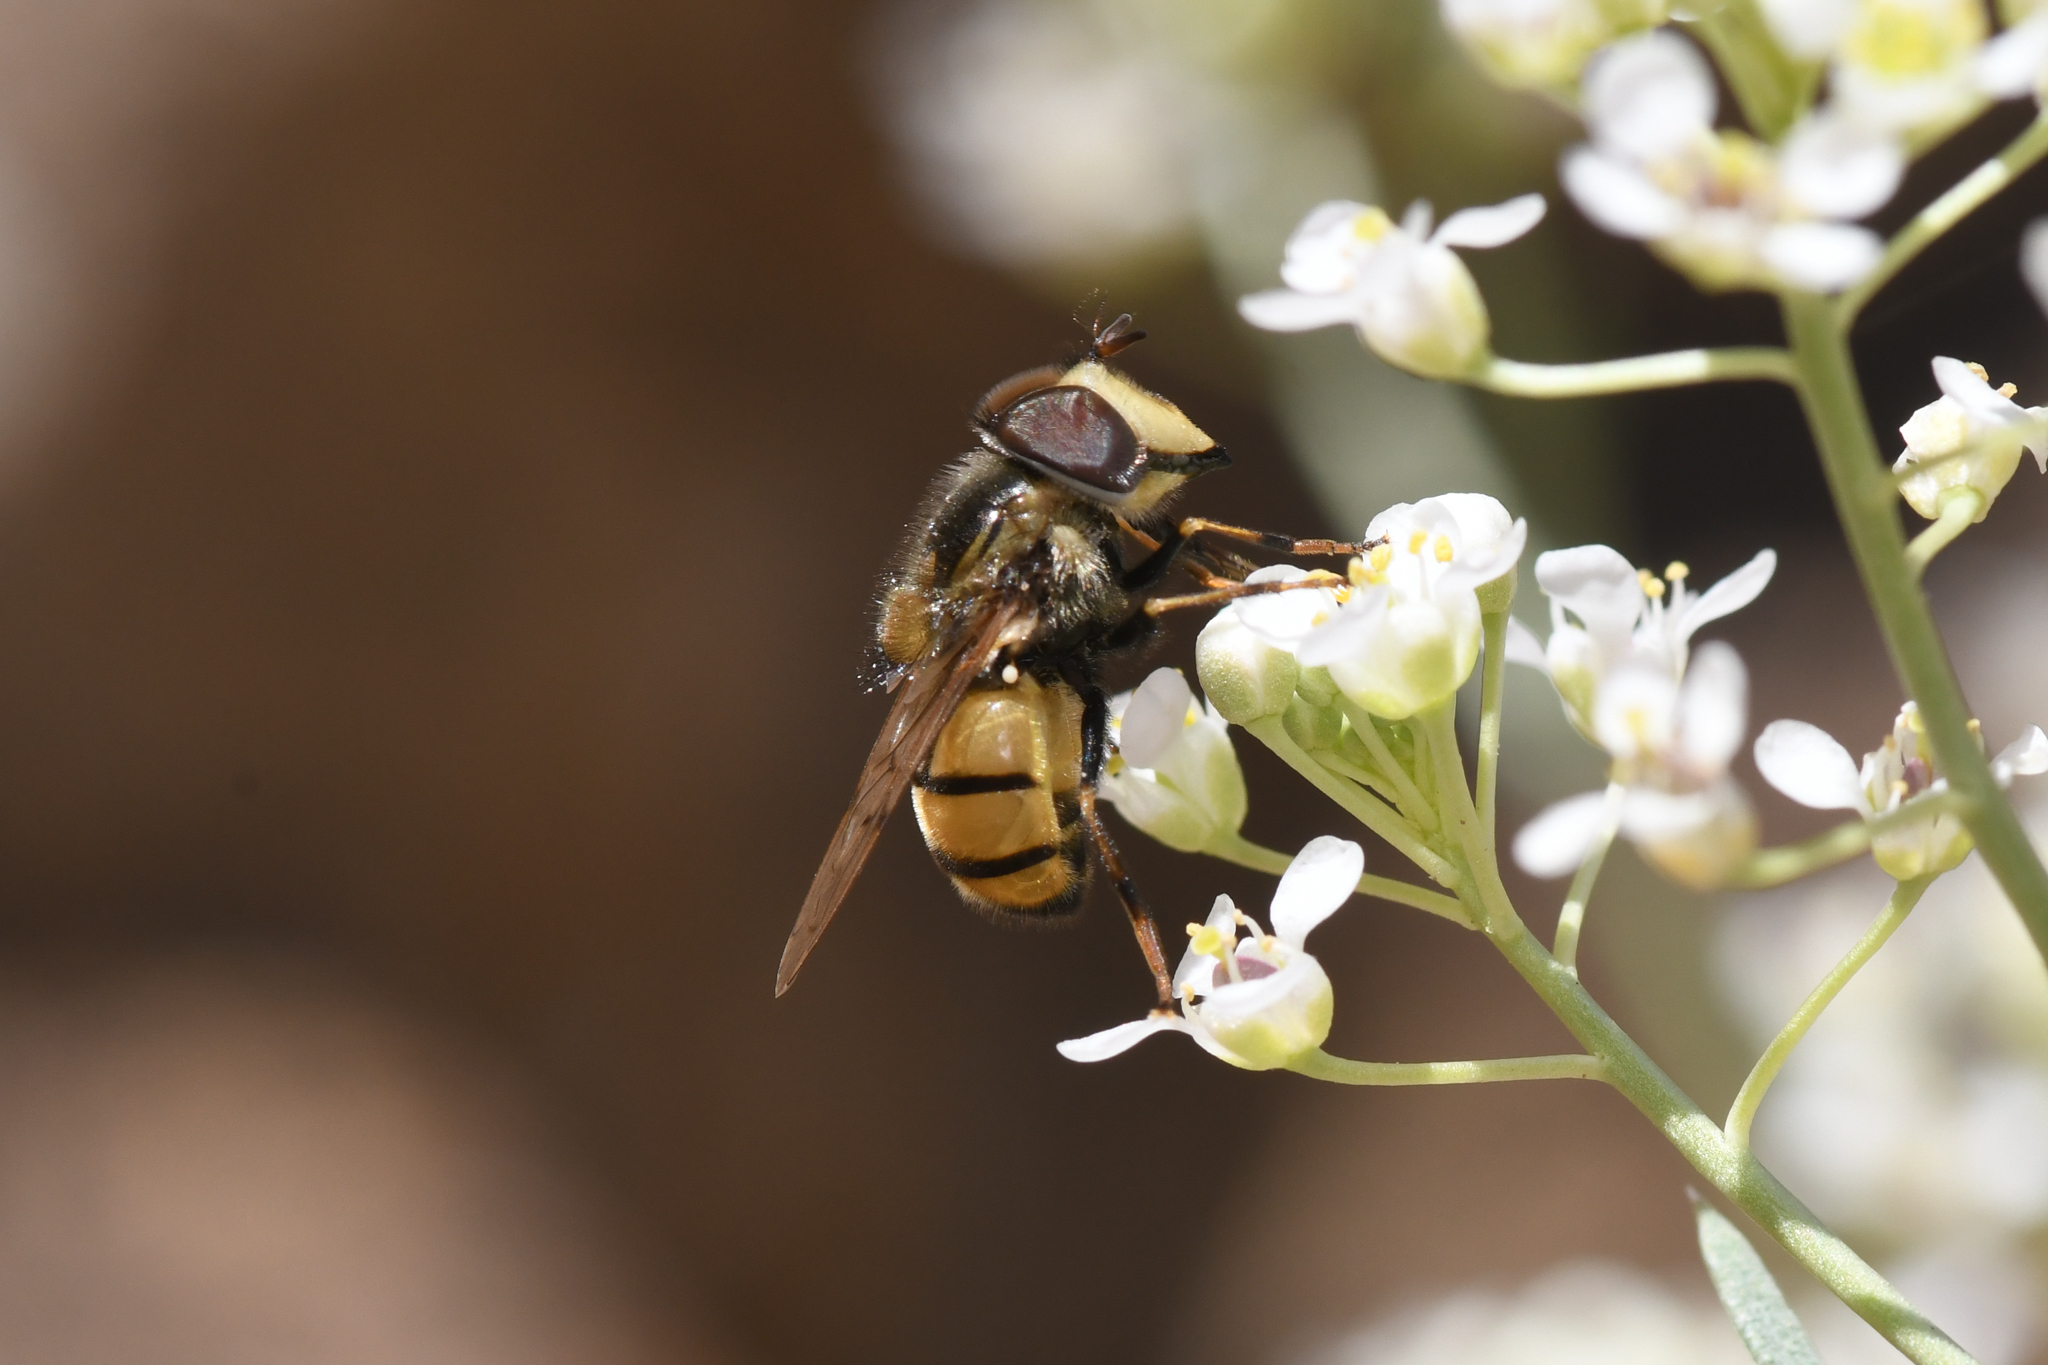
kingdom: Animalia
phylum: Arthropoda
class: Insecta
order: Diptera
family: Syrphidae
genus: Copestylum
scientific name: Copestylum satur
